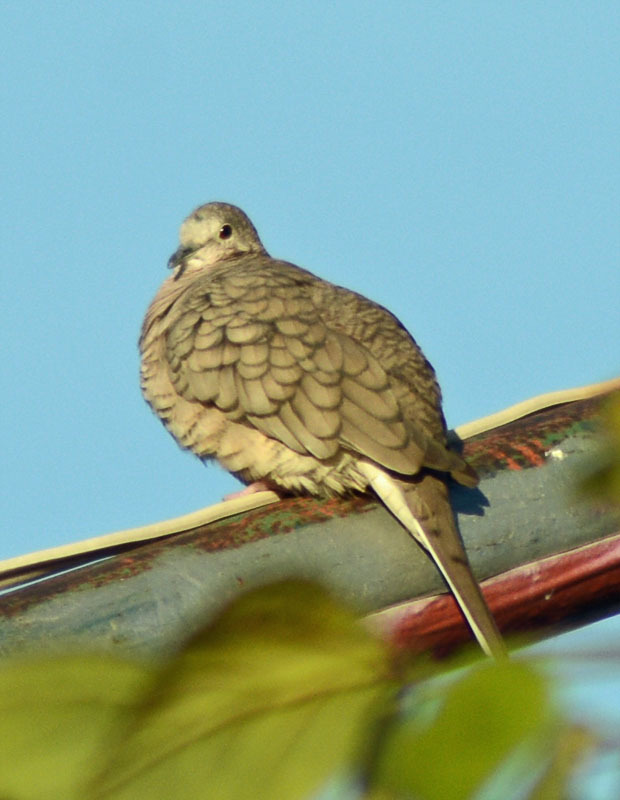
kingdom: Animalia
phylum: Chordata
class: Aves
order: Columbiformes
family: Columbidae
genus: Columbina
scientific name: Columbina inca
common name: Inca dove
